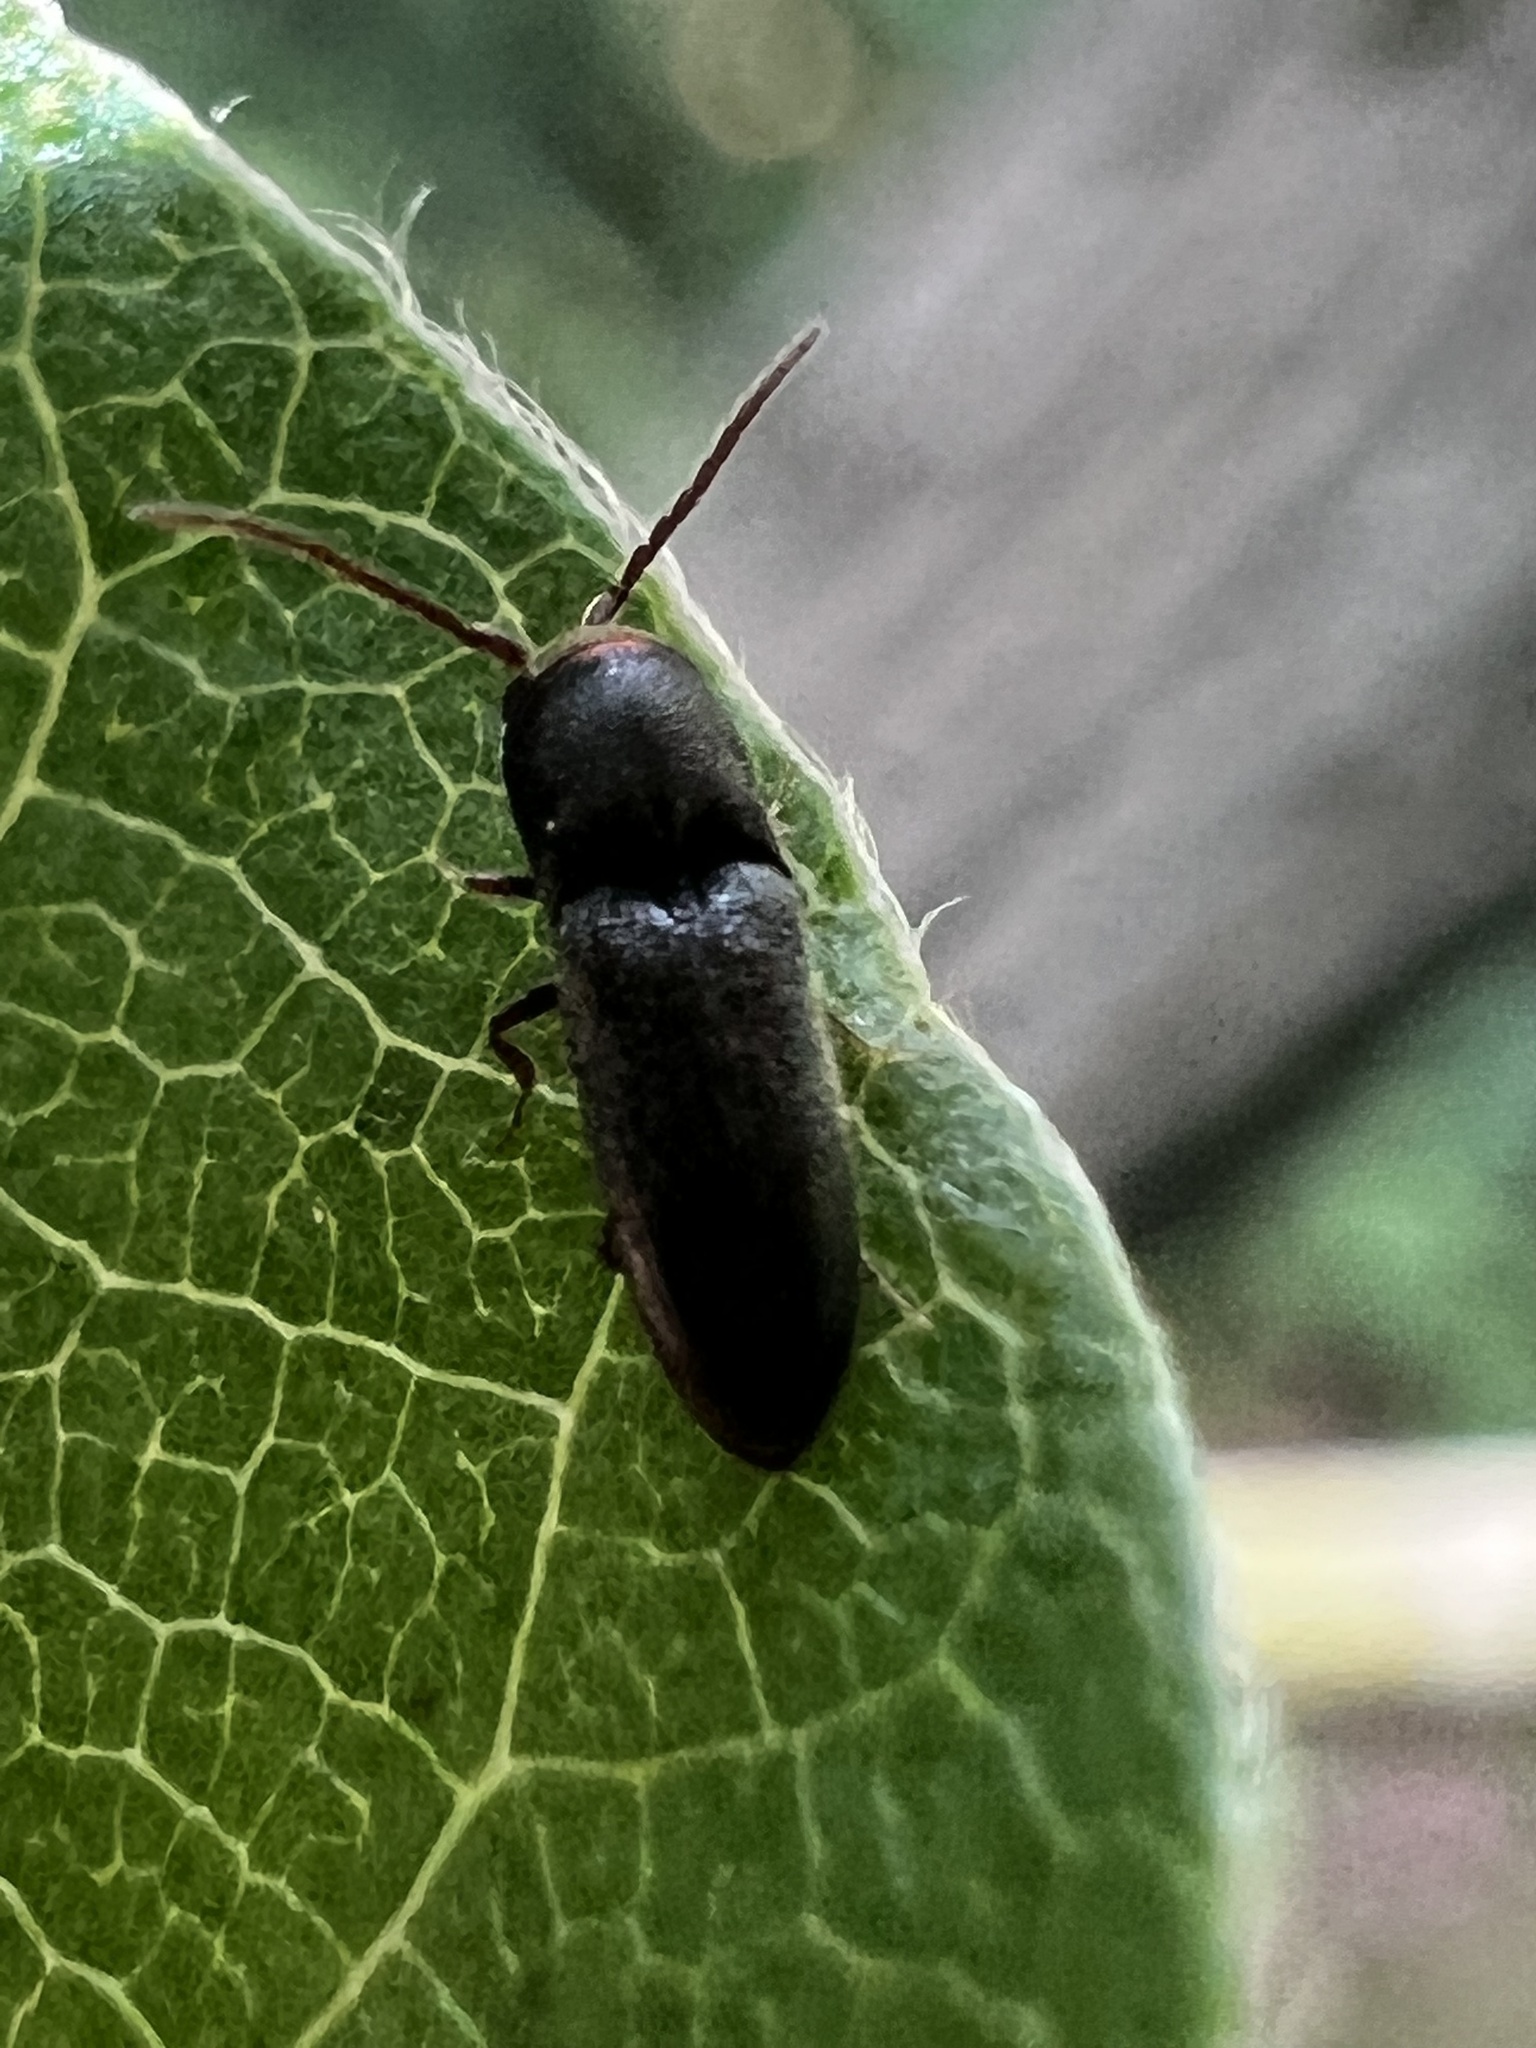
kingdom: Animalia
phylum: Arthropoda
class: Insecta
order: Coleoptera
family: Eucnemidae
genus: Rhagomicrus
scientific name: Rhagomicrus bonvouloiri
